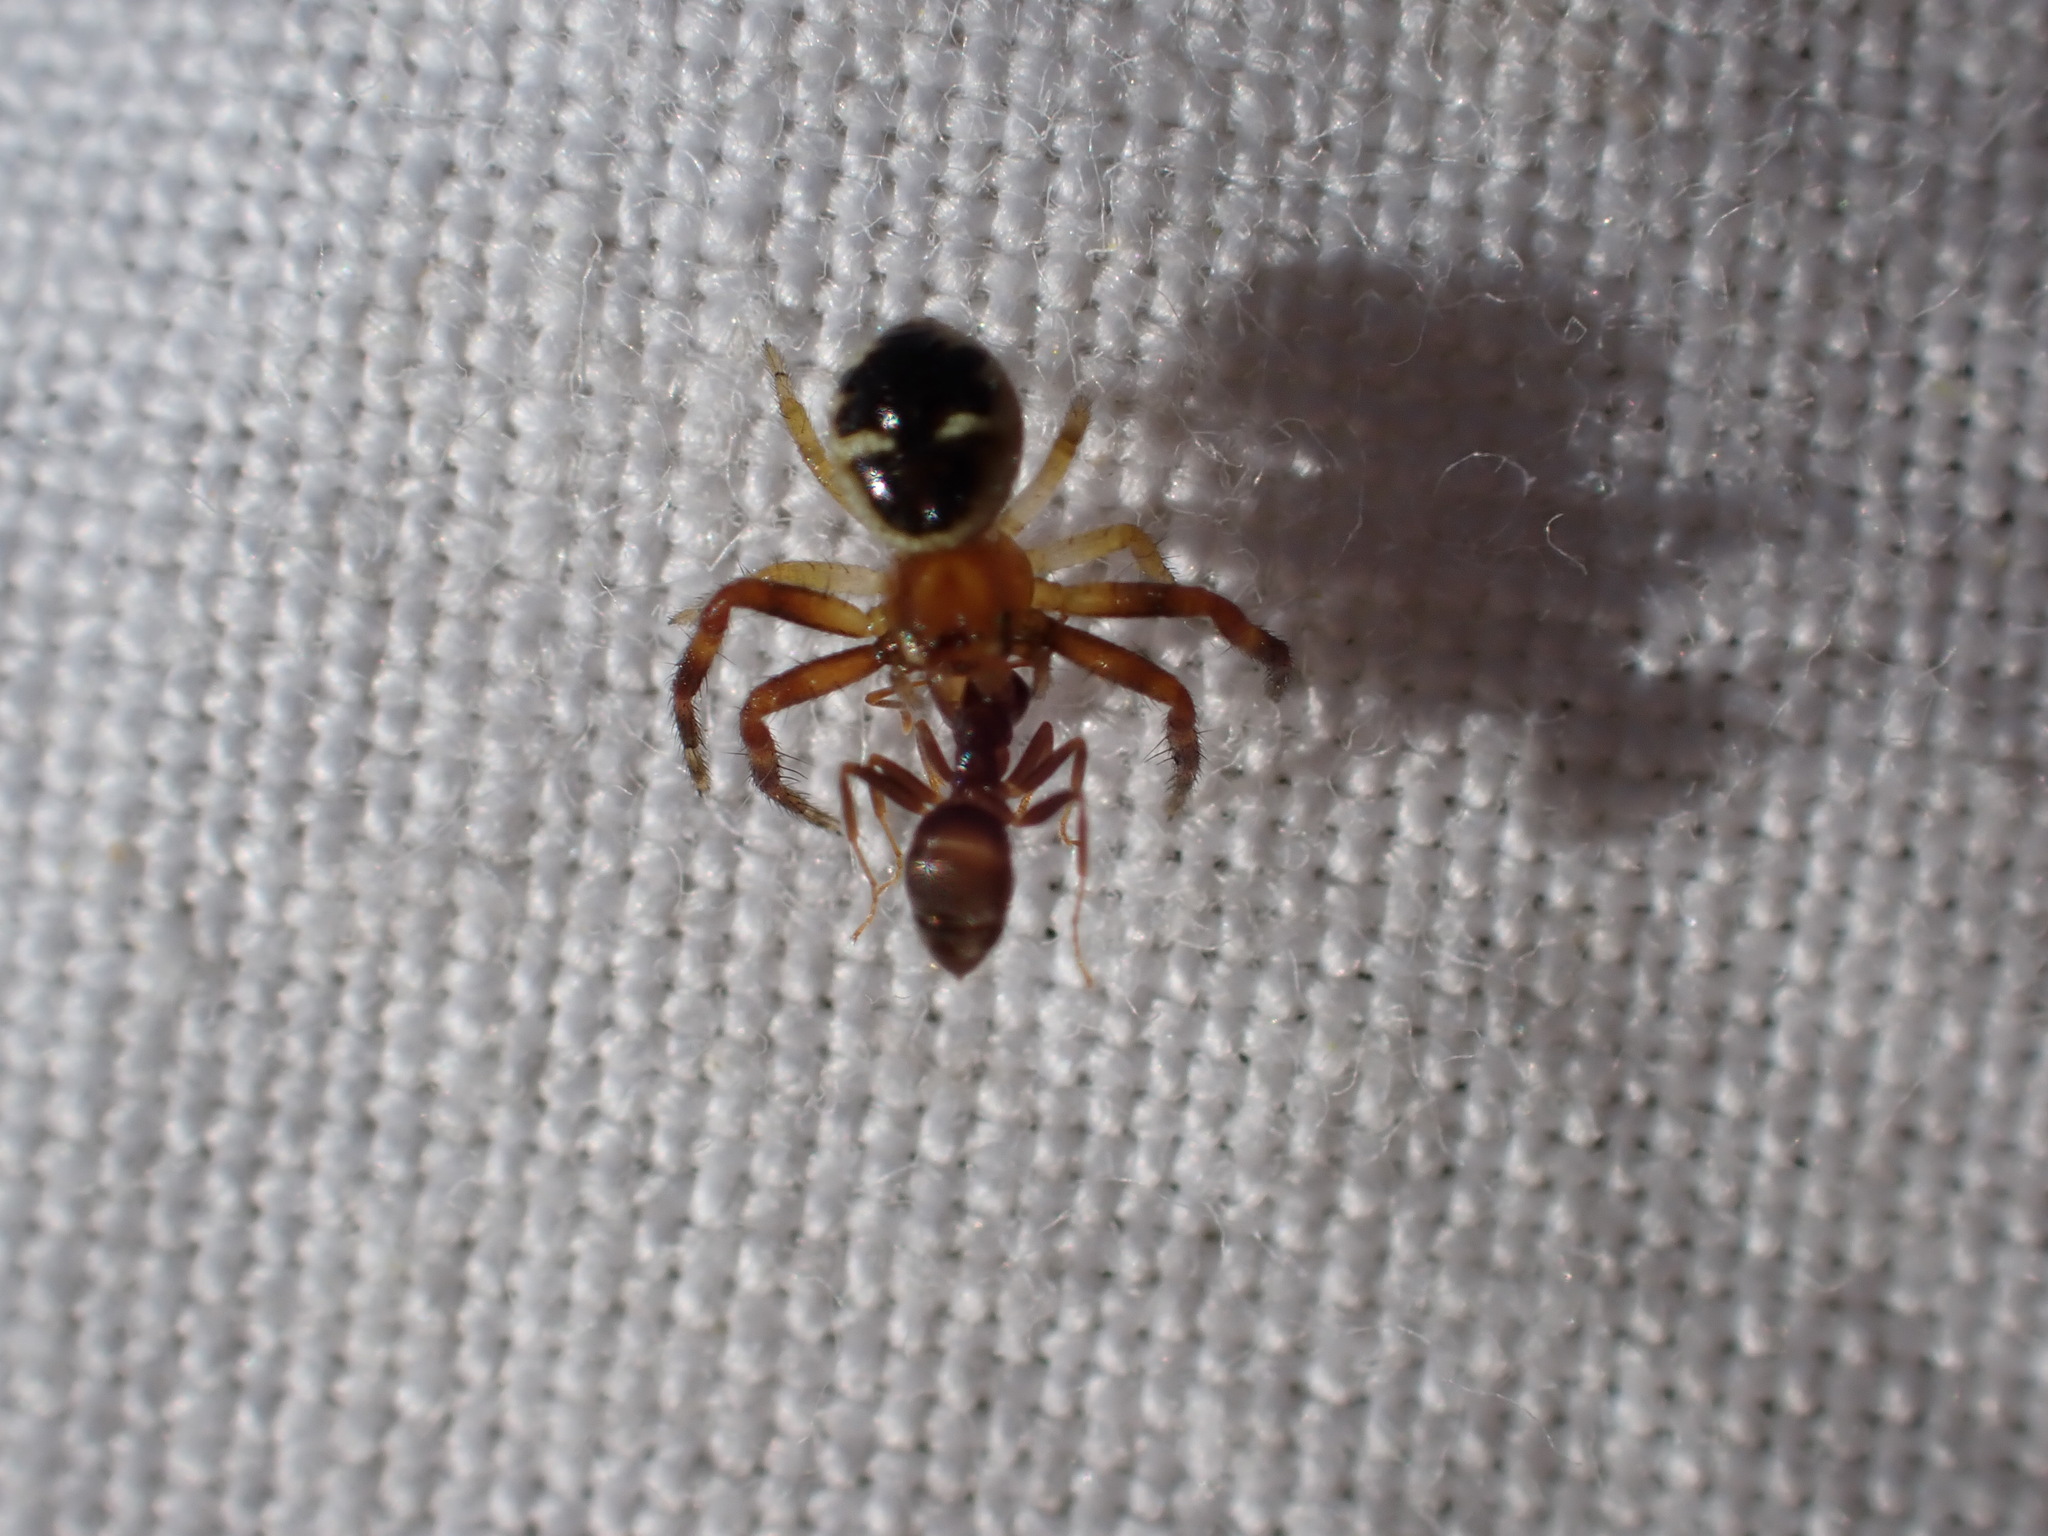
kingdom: Animalia
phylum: Arthropoda
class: Arachnida
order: Araneae
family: Thomisidae
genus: Synema
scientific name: Synema globosum
